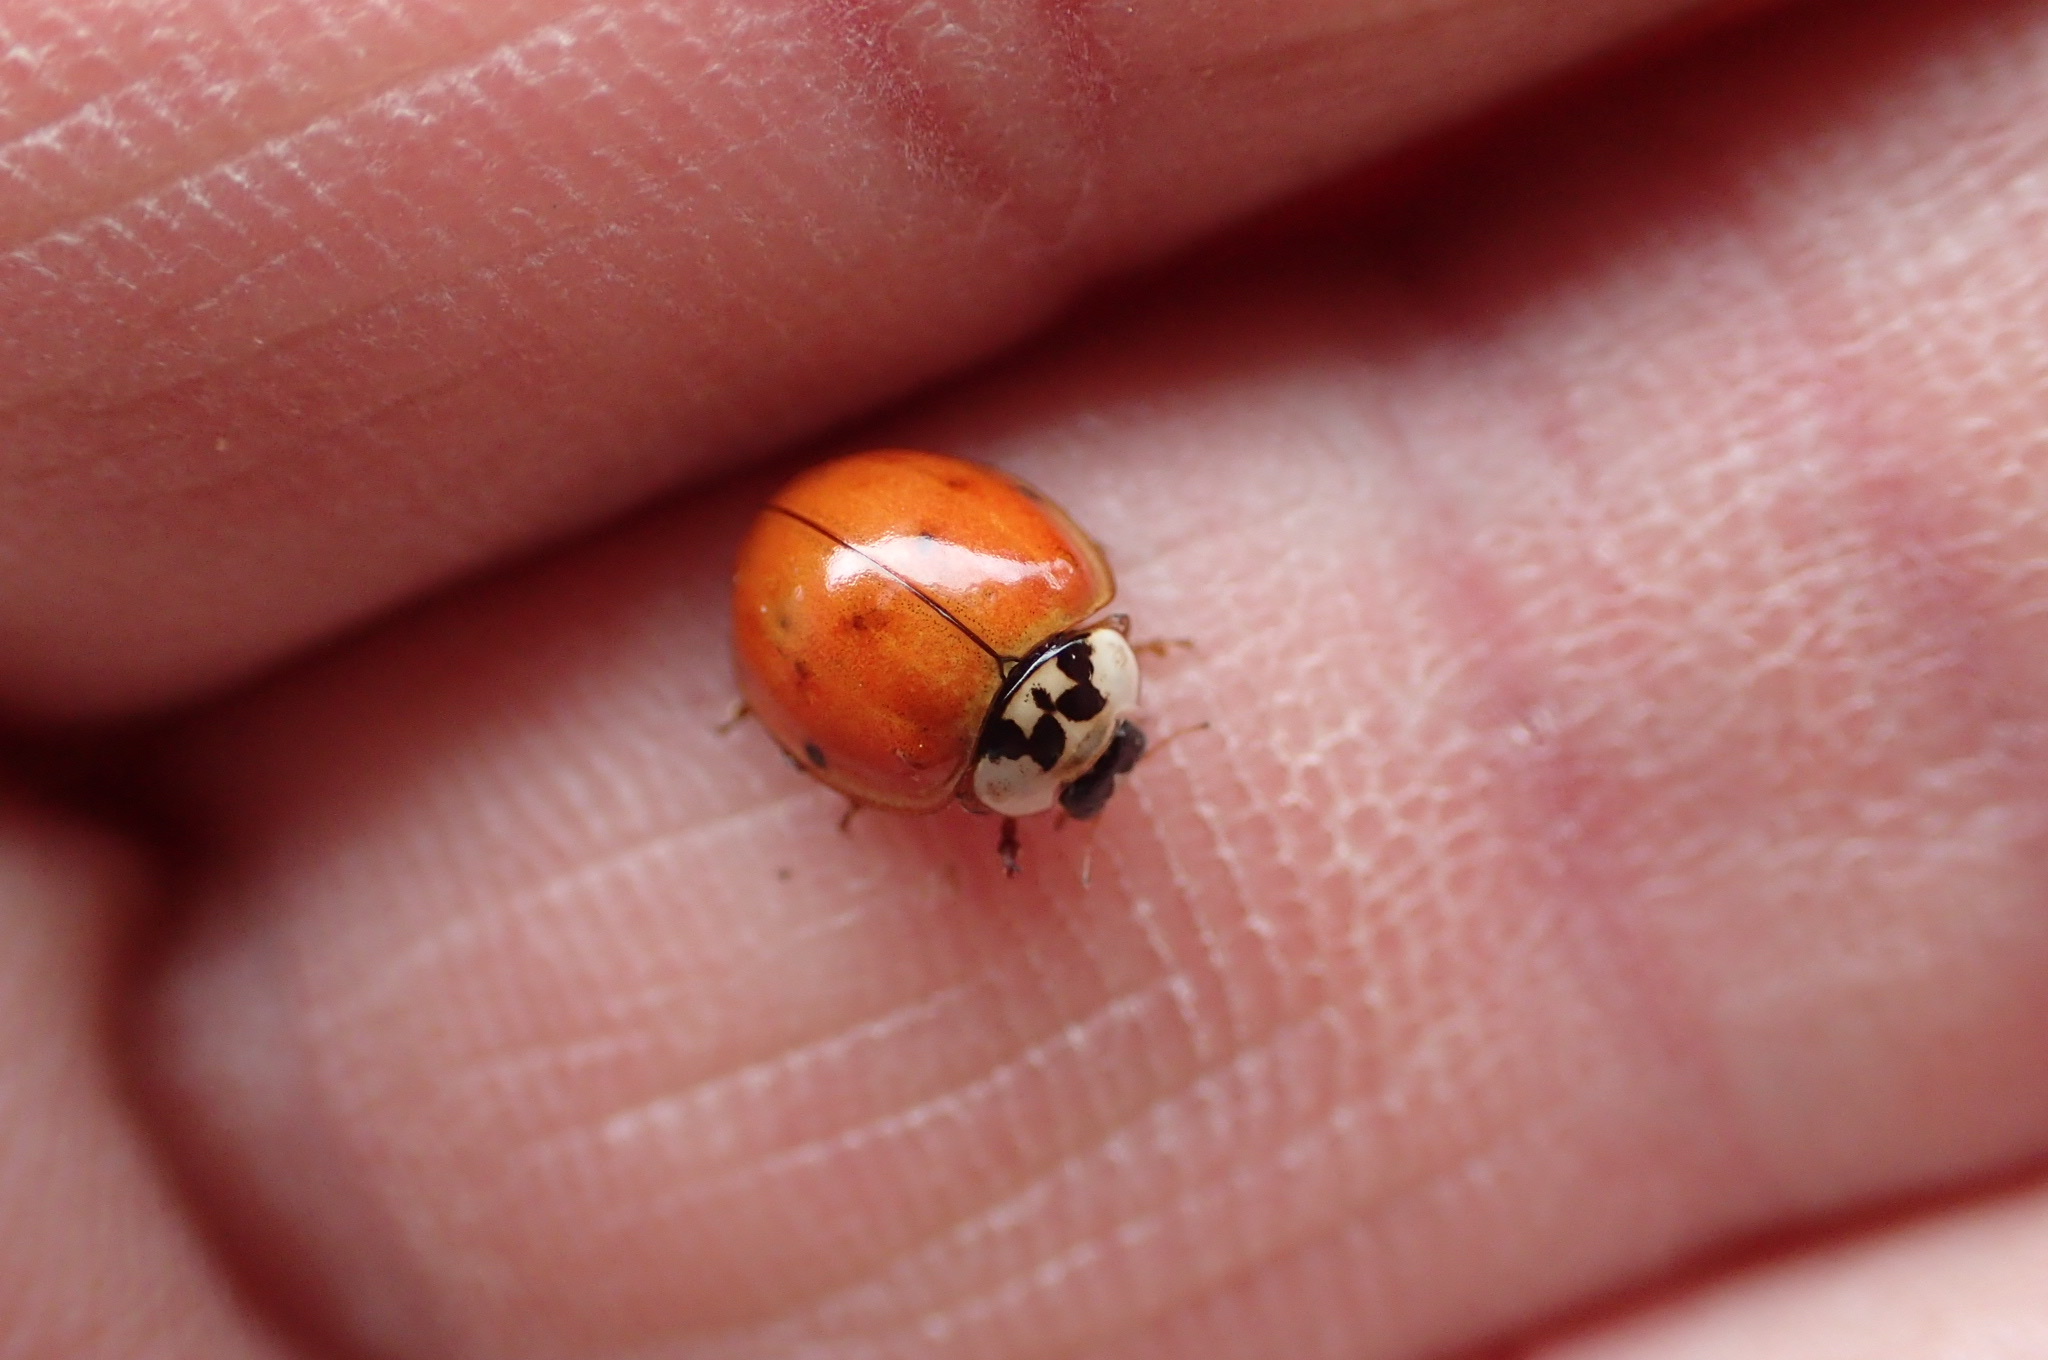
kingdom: Animalia
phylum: Arthropoda
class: Insecta
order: Coleoptera
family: Coccinellidae
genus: Harmonia
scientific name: Harmonia axyridis
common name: Harlequin ladybird
